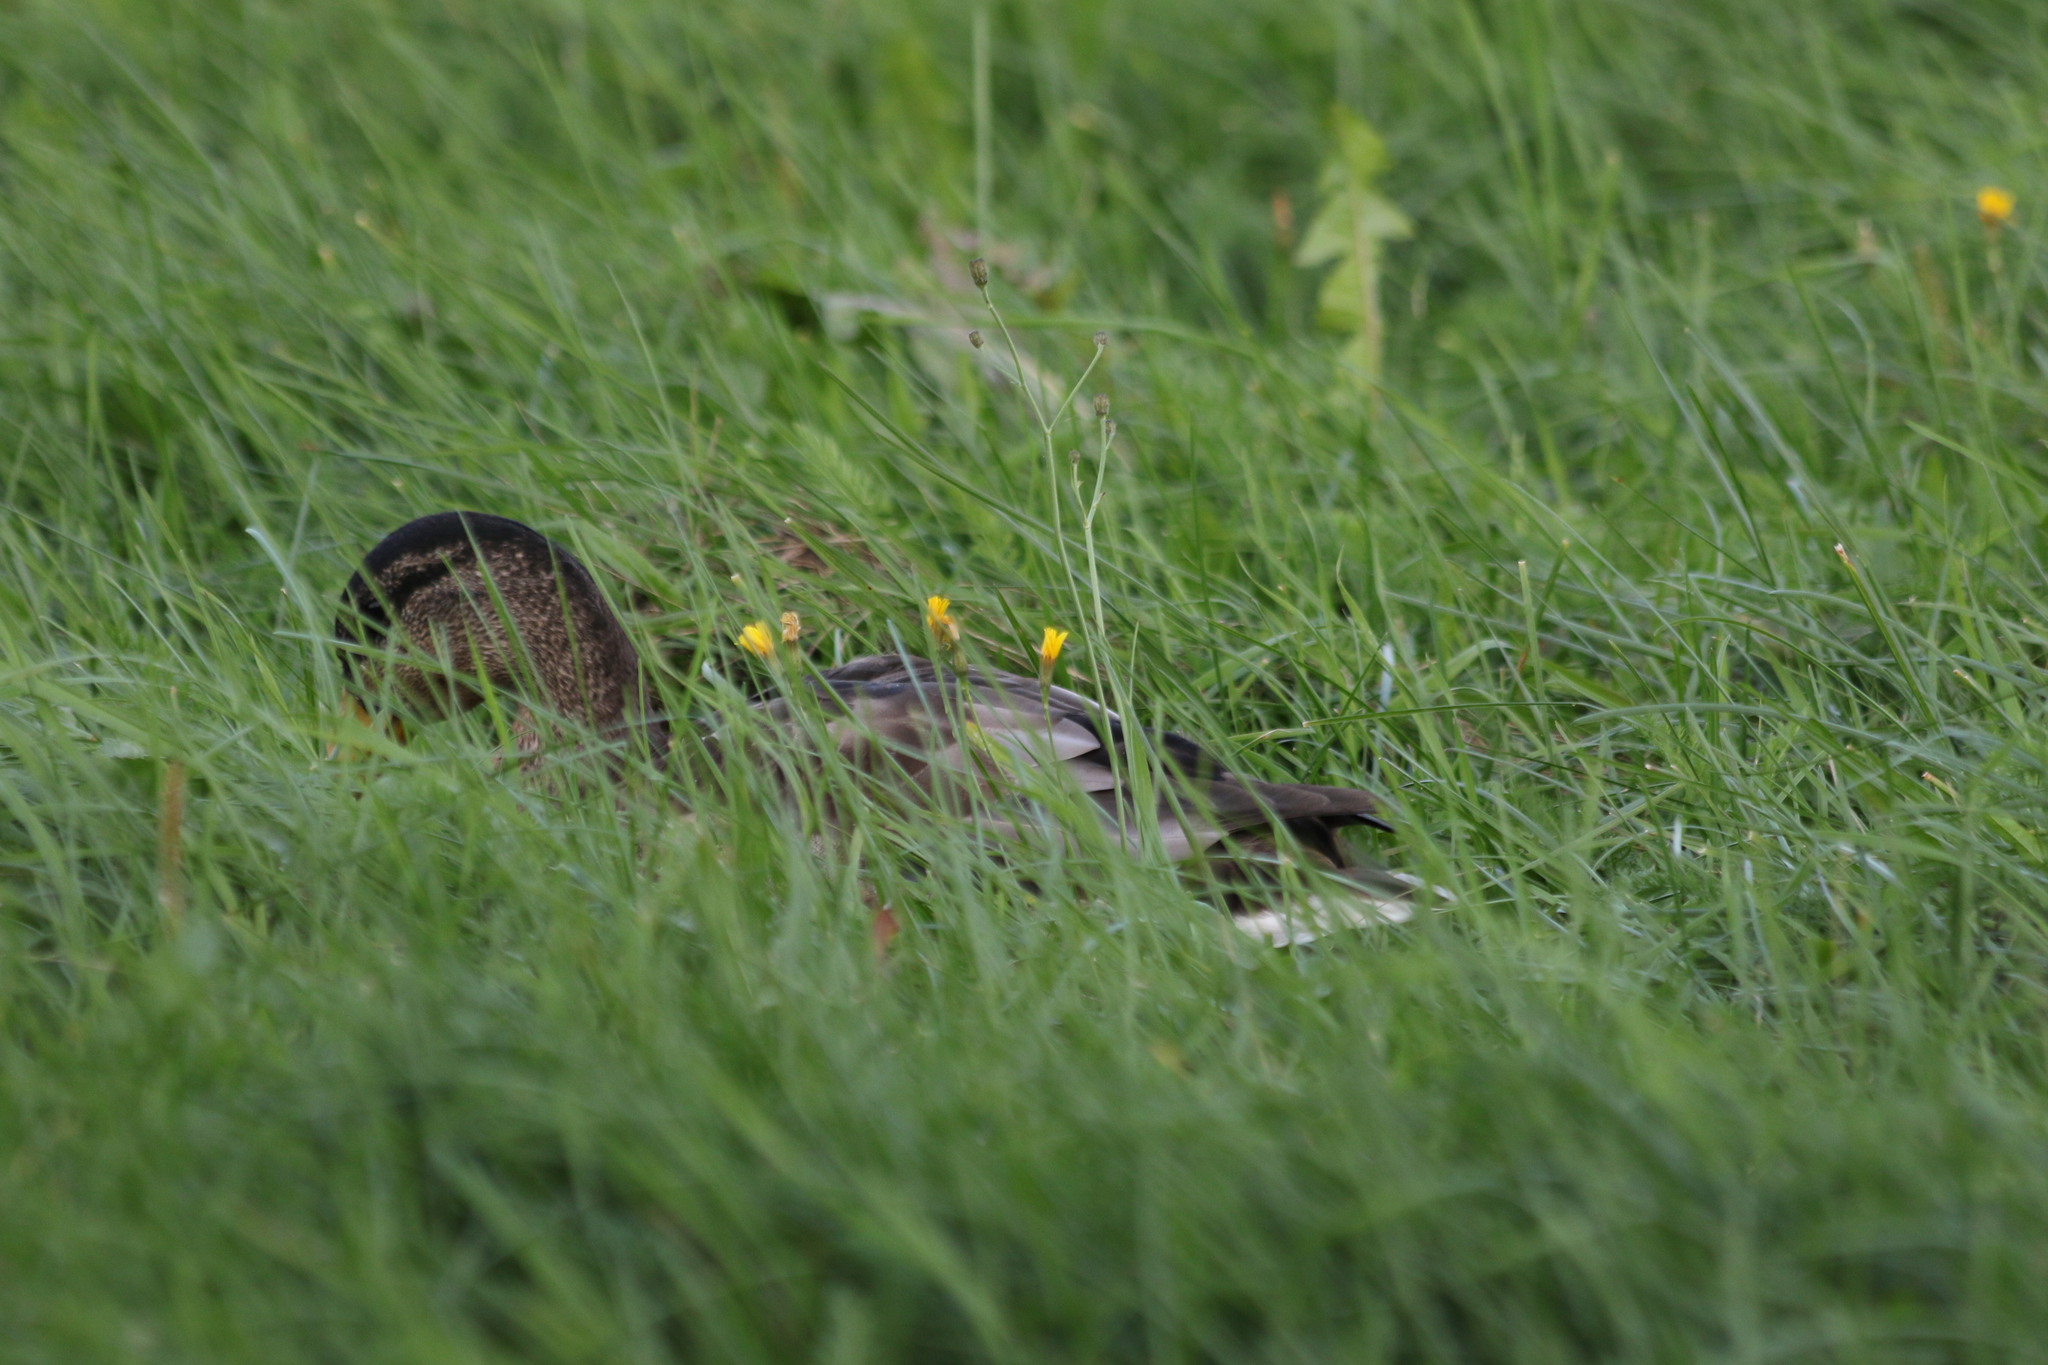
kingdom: Animalia
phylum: Chordata
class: Aves
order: Anseriformes
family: Anatidae
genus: Anas
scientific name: Anas platyrhynchos
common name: Mallard
